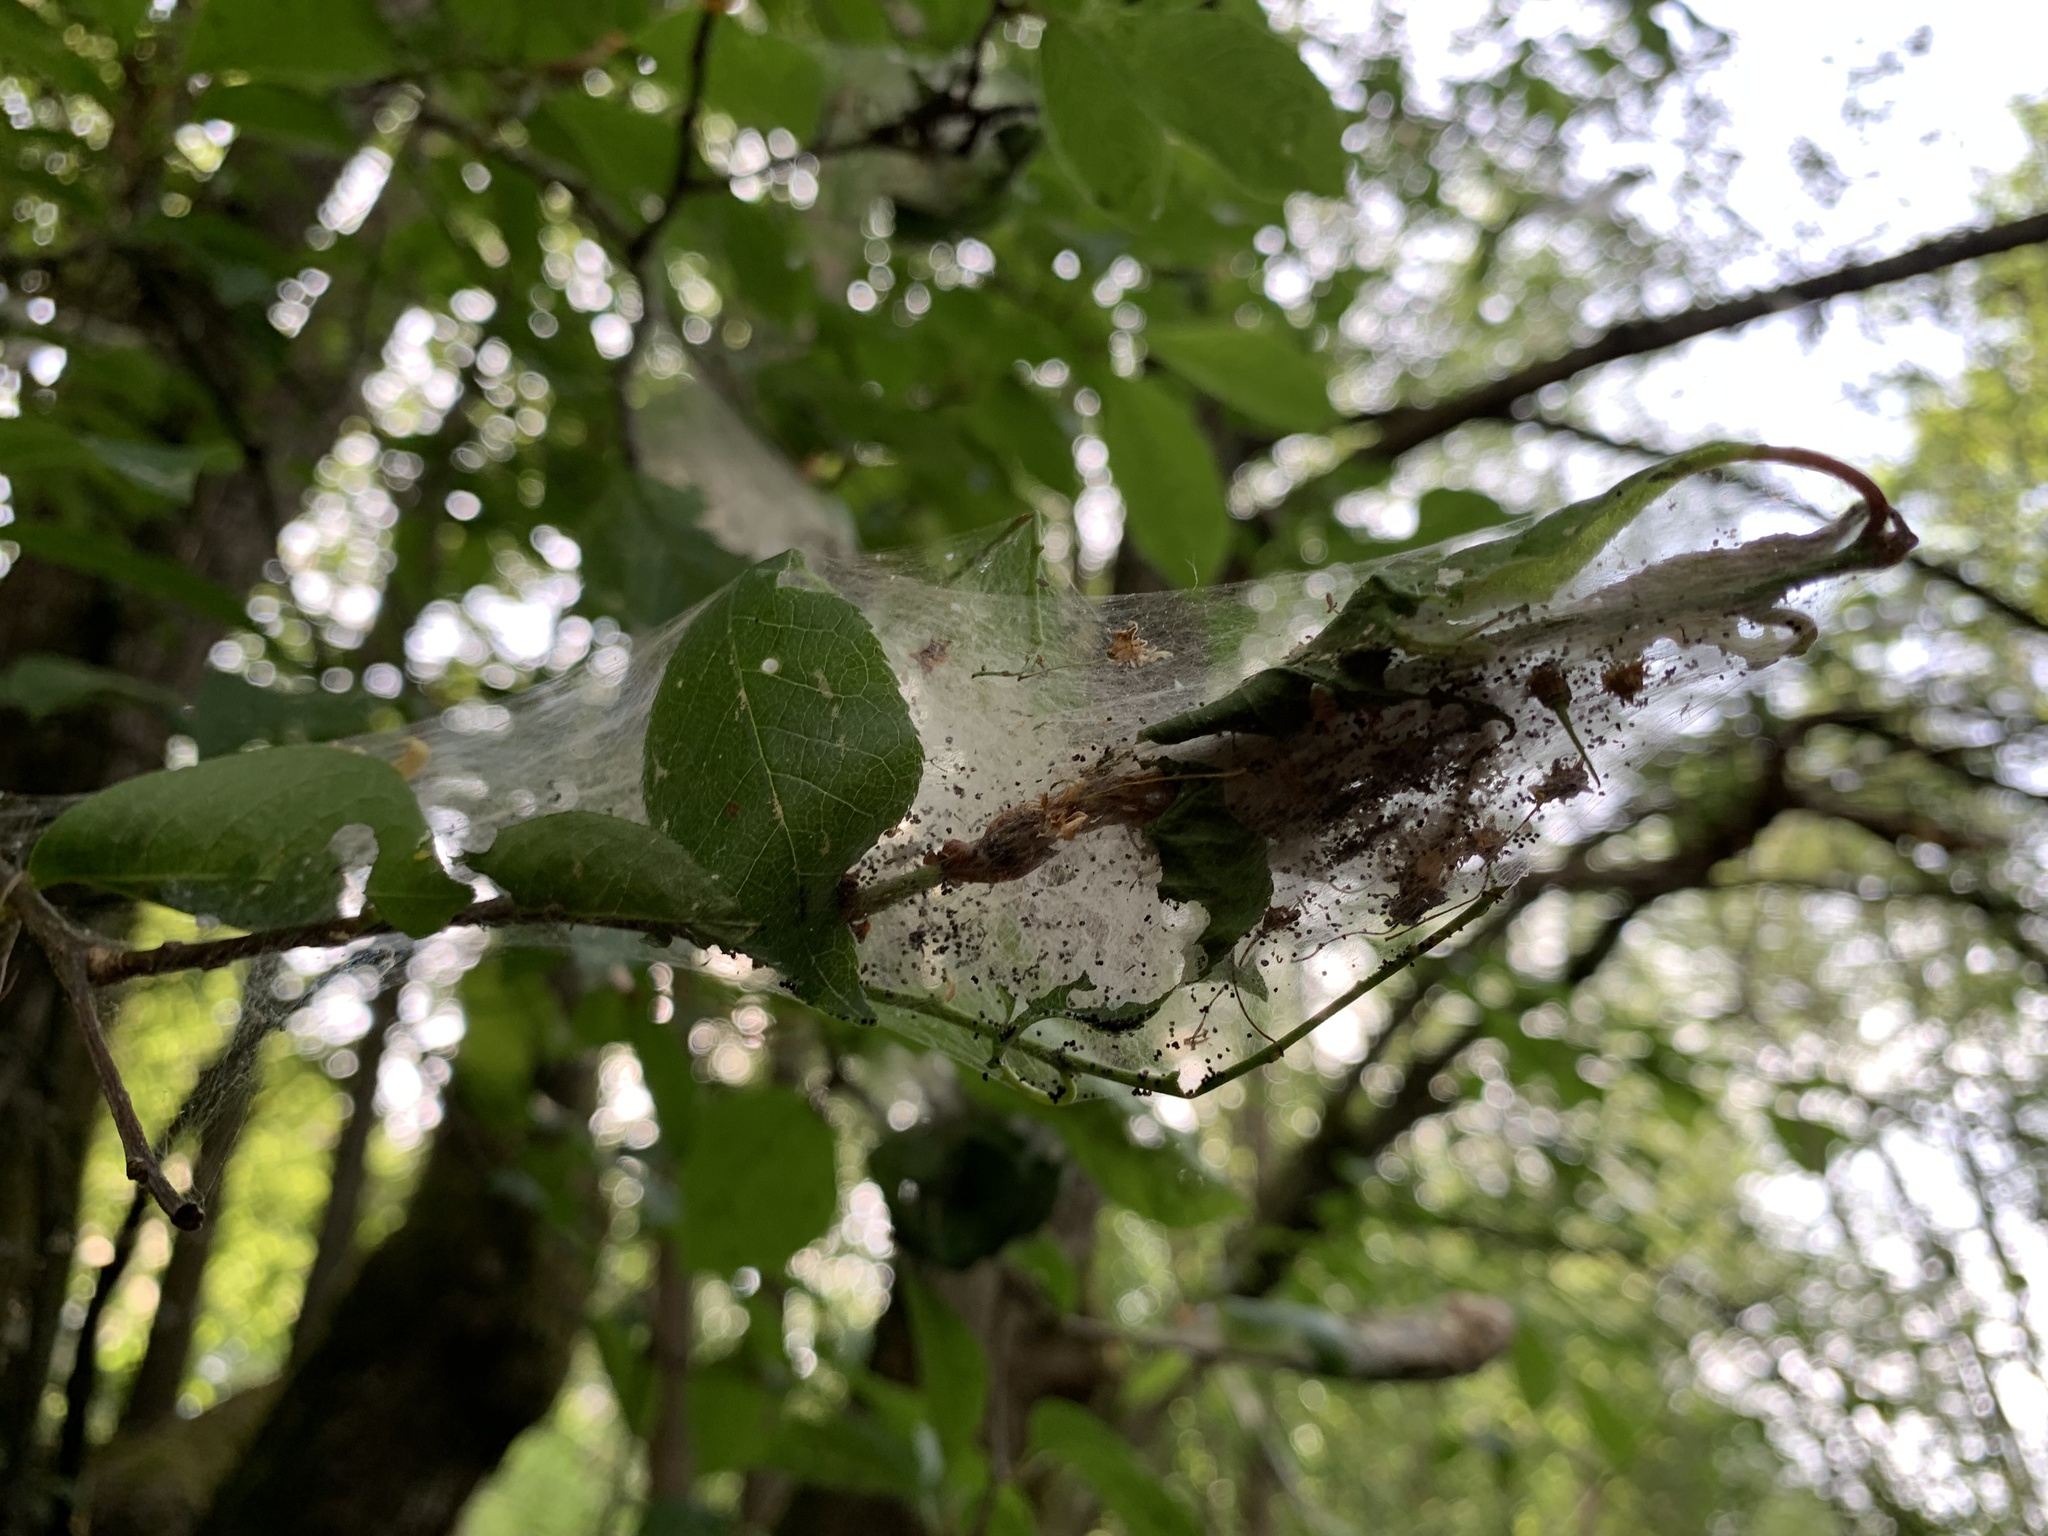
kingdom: Animalia
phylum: Arthropoda
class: Insecta
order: Lepidoptera
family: Yponomeutidae
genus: Yponomeuta
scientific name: Yponomeuta evonymella
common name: Bird-cherry ermine
